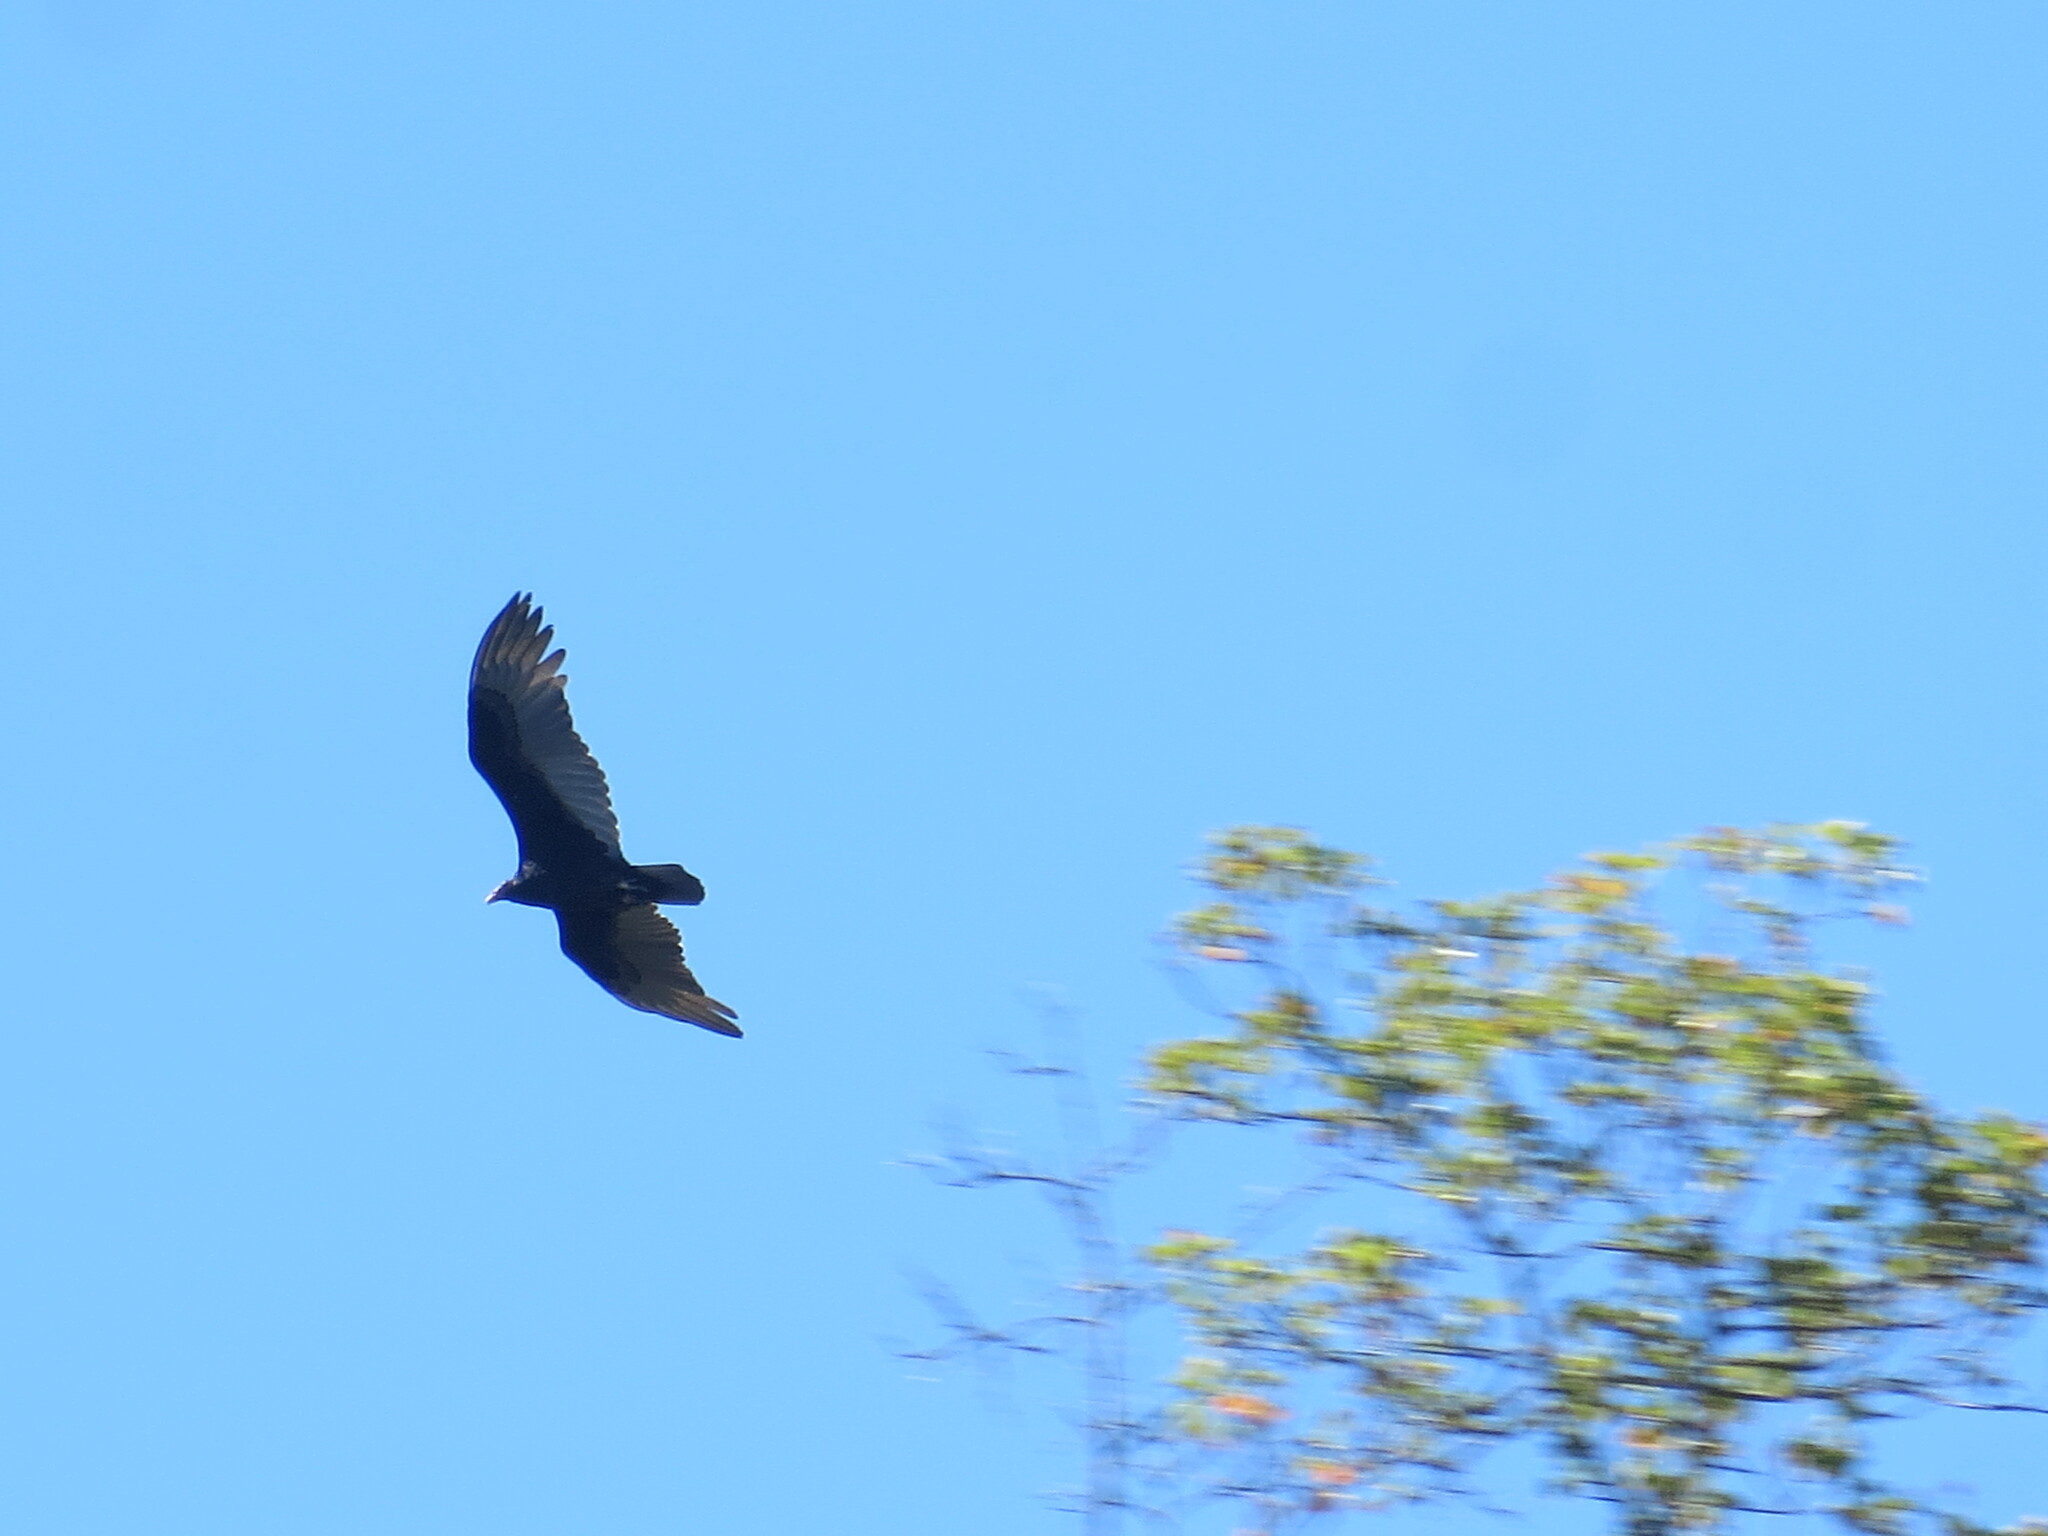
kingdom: Animalia
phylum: Chordata
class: Aves
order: Accipitriformes
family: Cathartidae
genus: Cathartes
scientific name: Cathartes aura
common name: Turkey vulture
